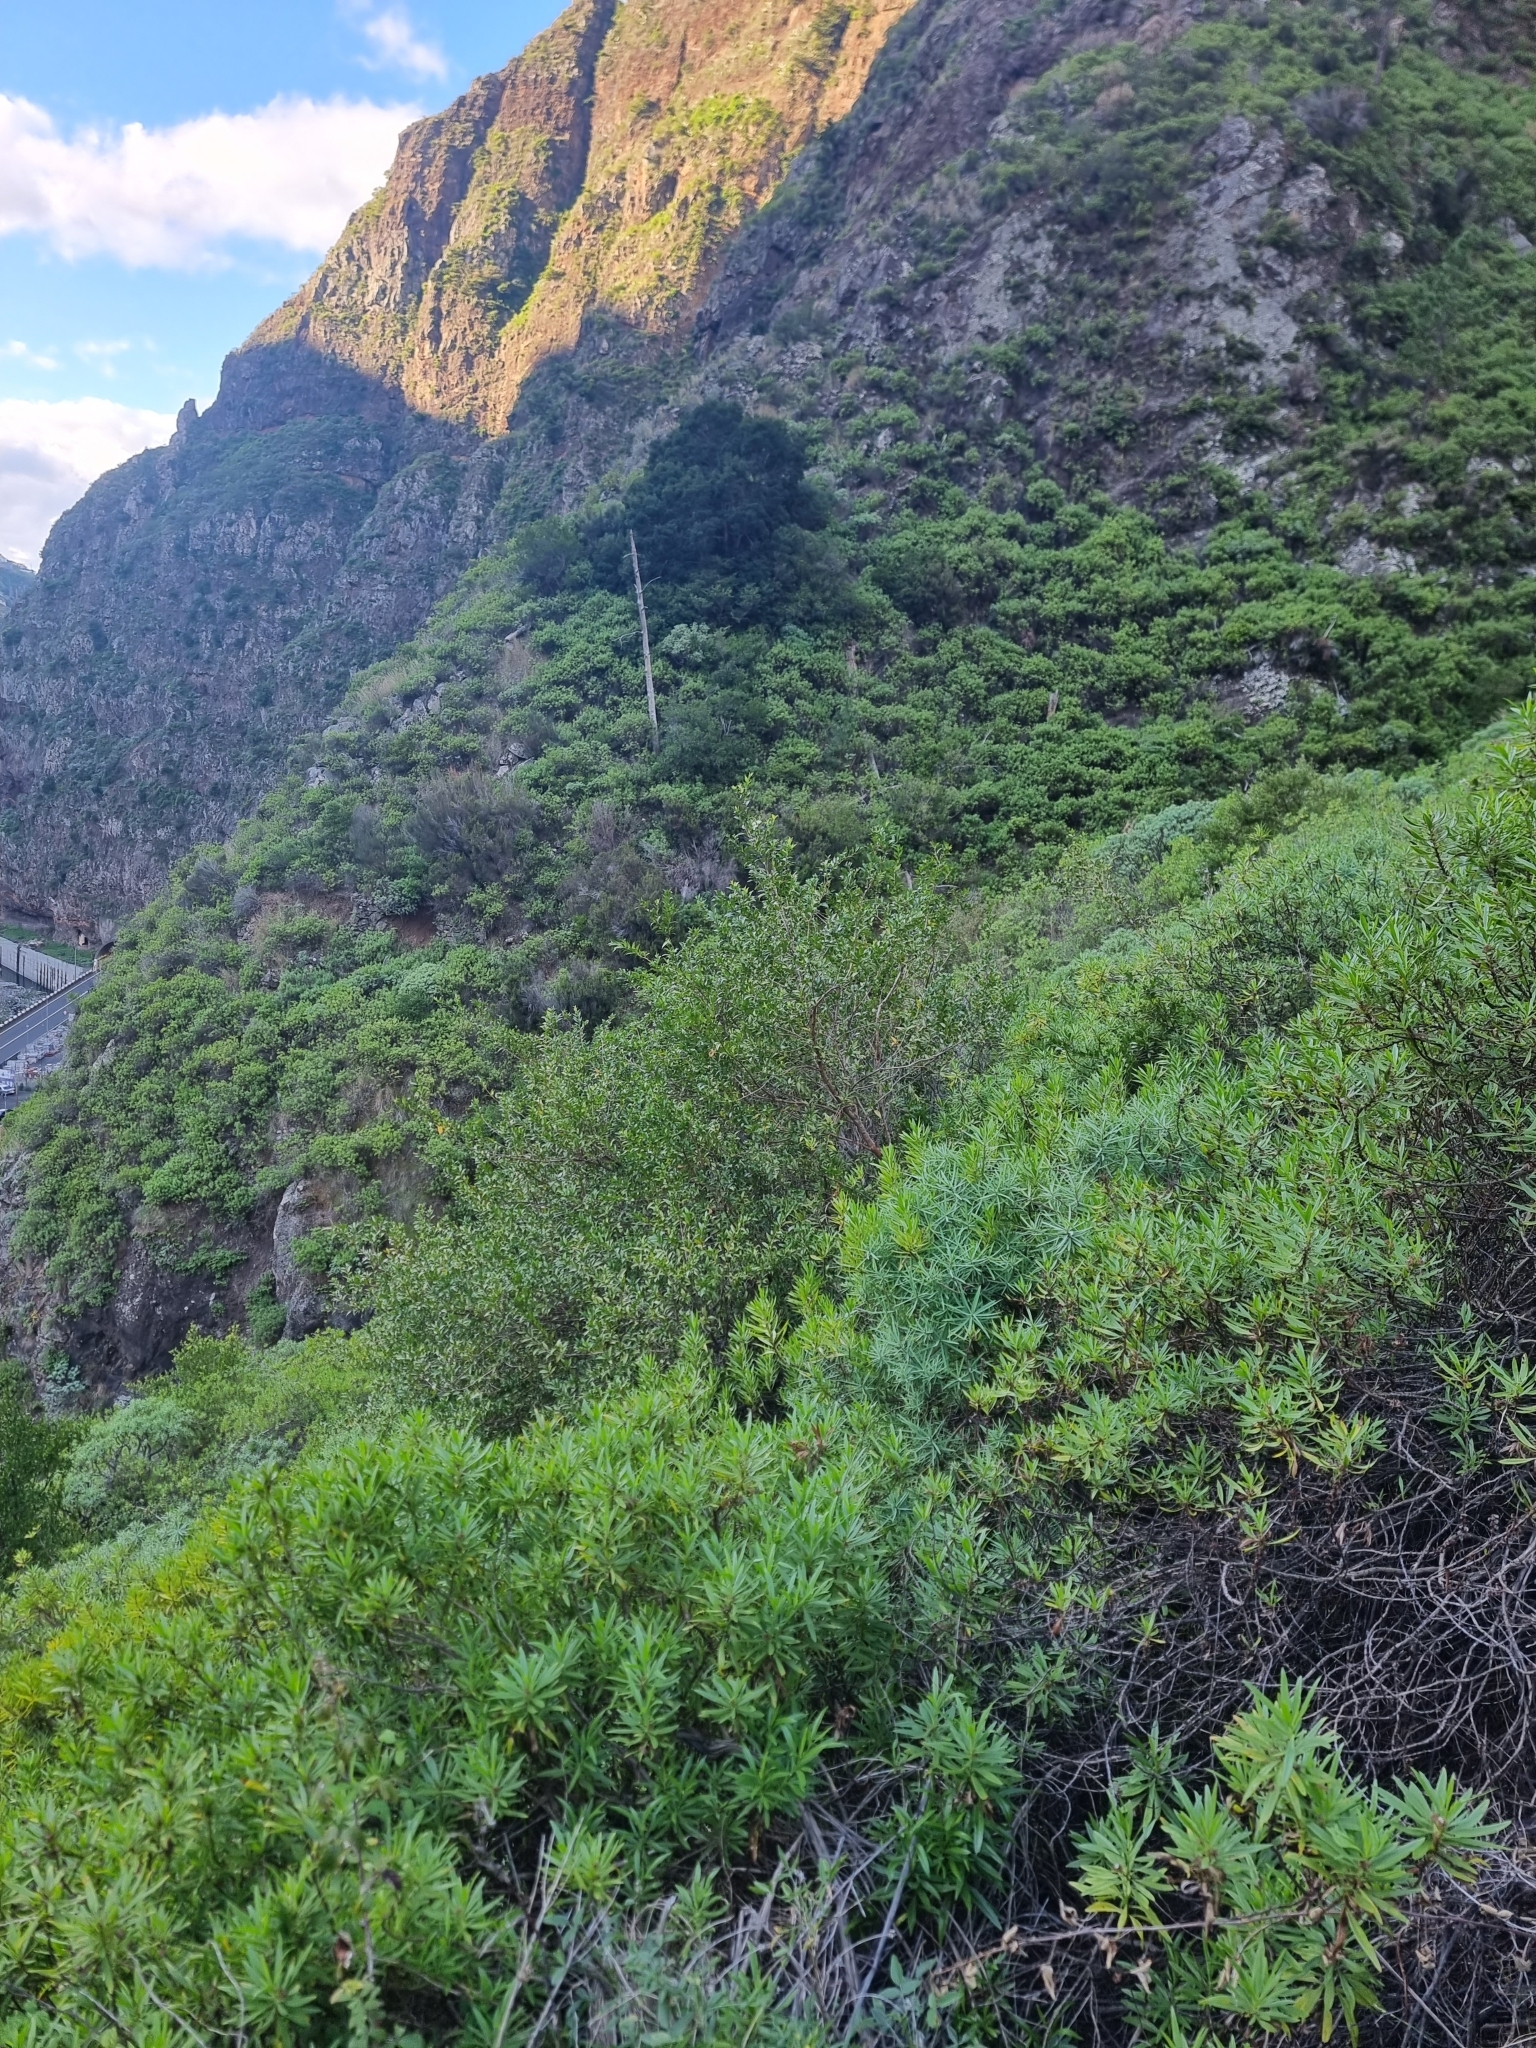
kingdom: Plantae
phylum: Tracheophyta
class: Magnoliopsida
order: Lamiales
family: Plantaginaceae
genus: Globularia
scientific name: Globularia salicina
